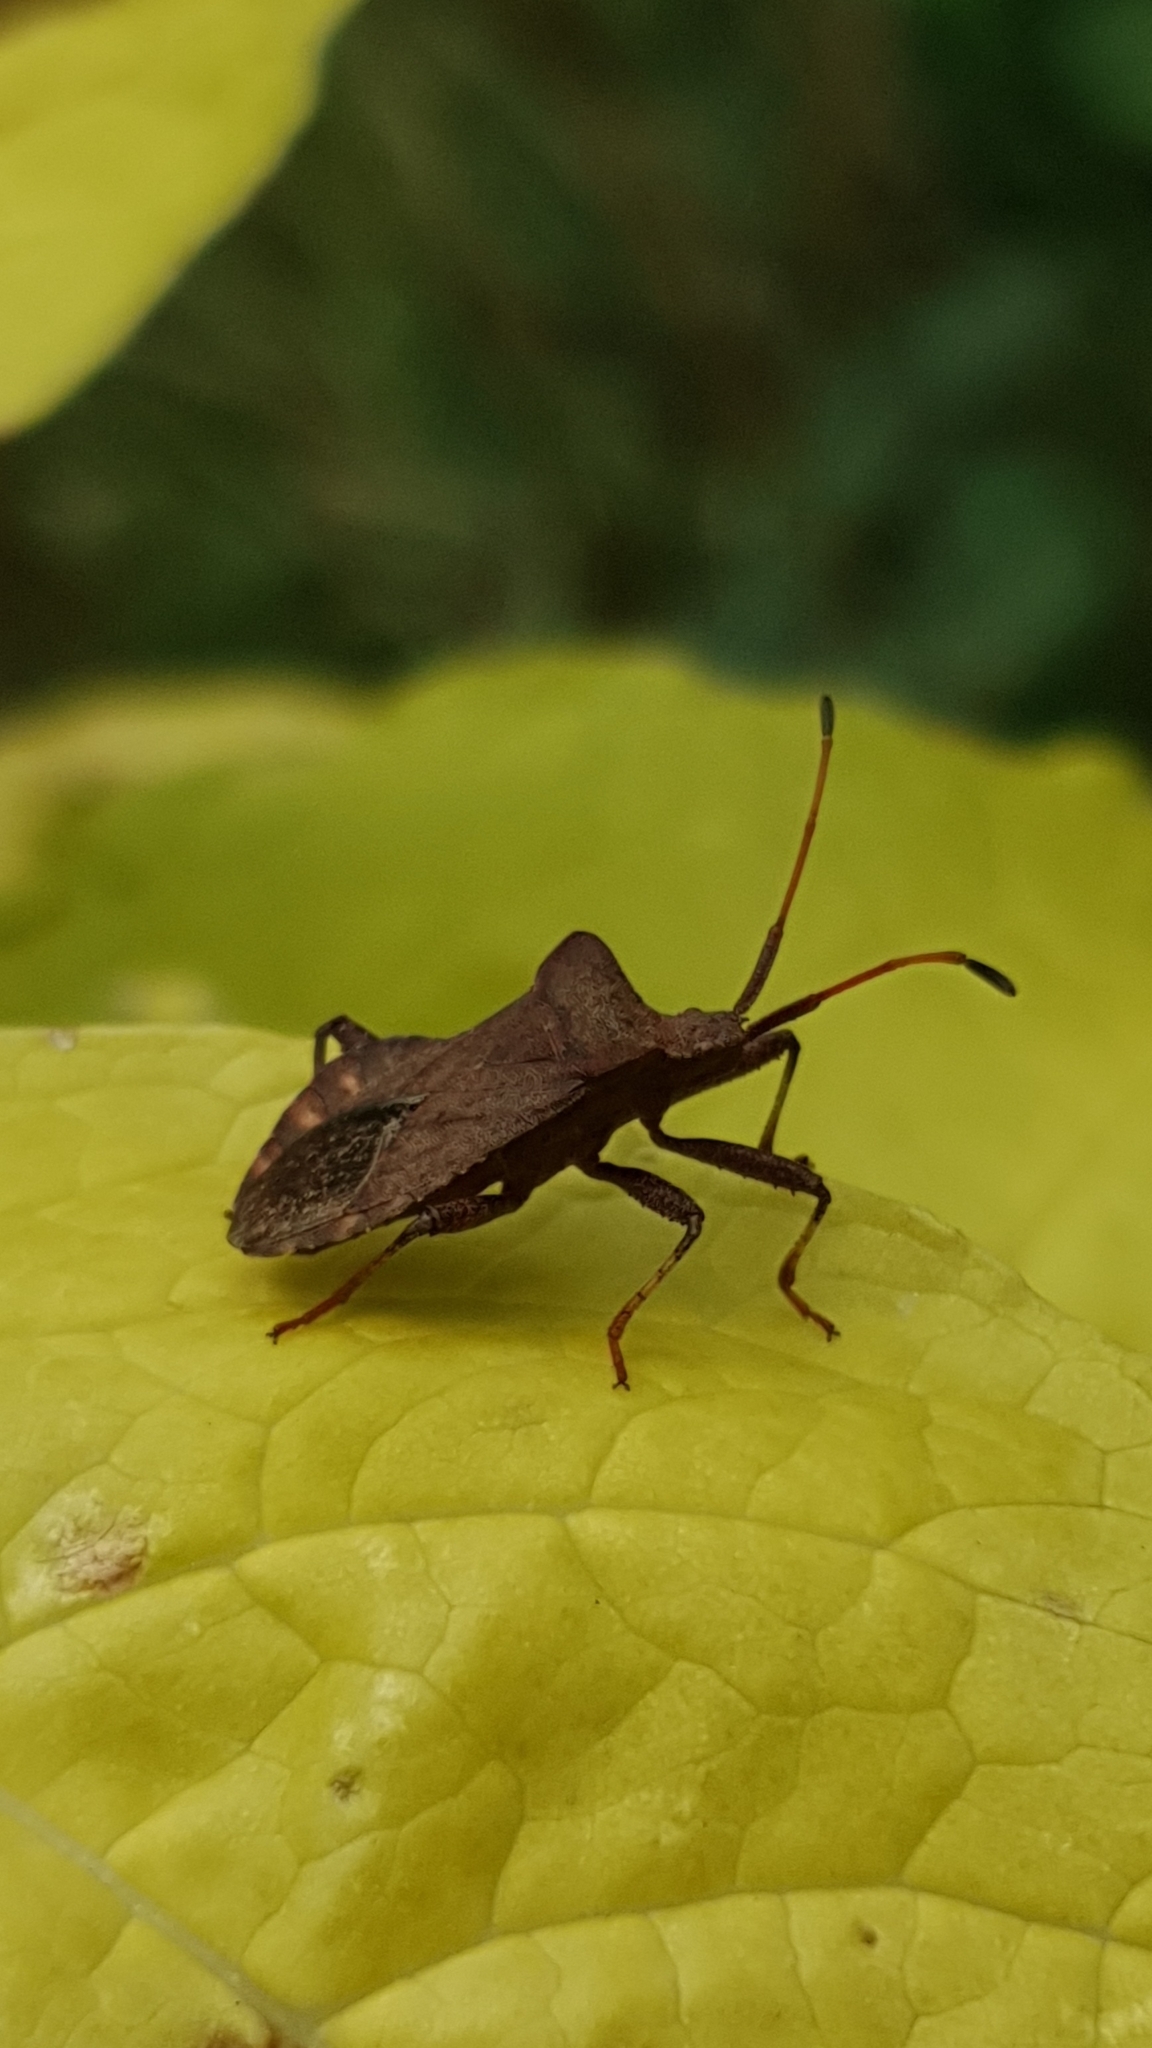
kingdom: Animalia
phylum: Arthropoda
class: Insecta
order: Hemiptera
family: Coreidae
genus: Coreus
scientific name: Coreus marginatus
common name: Dock bug
